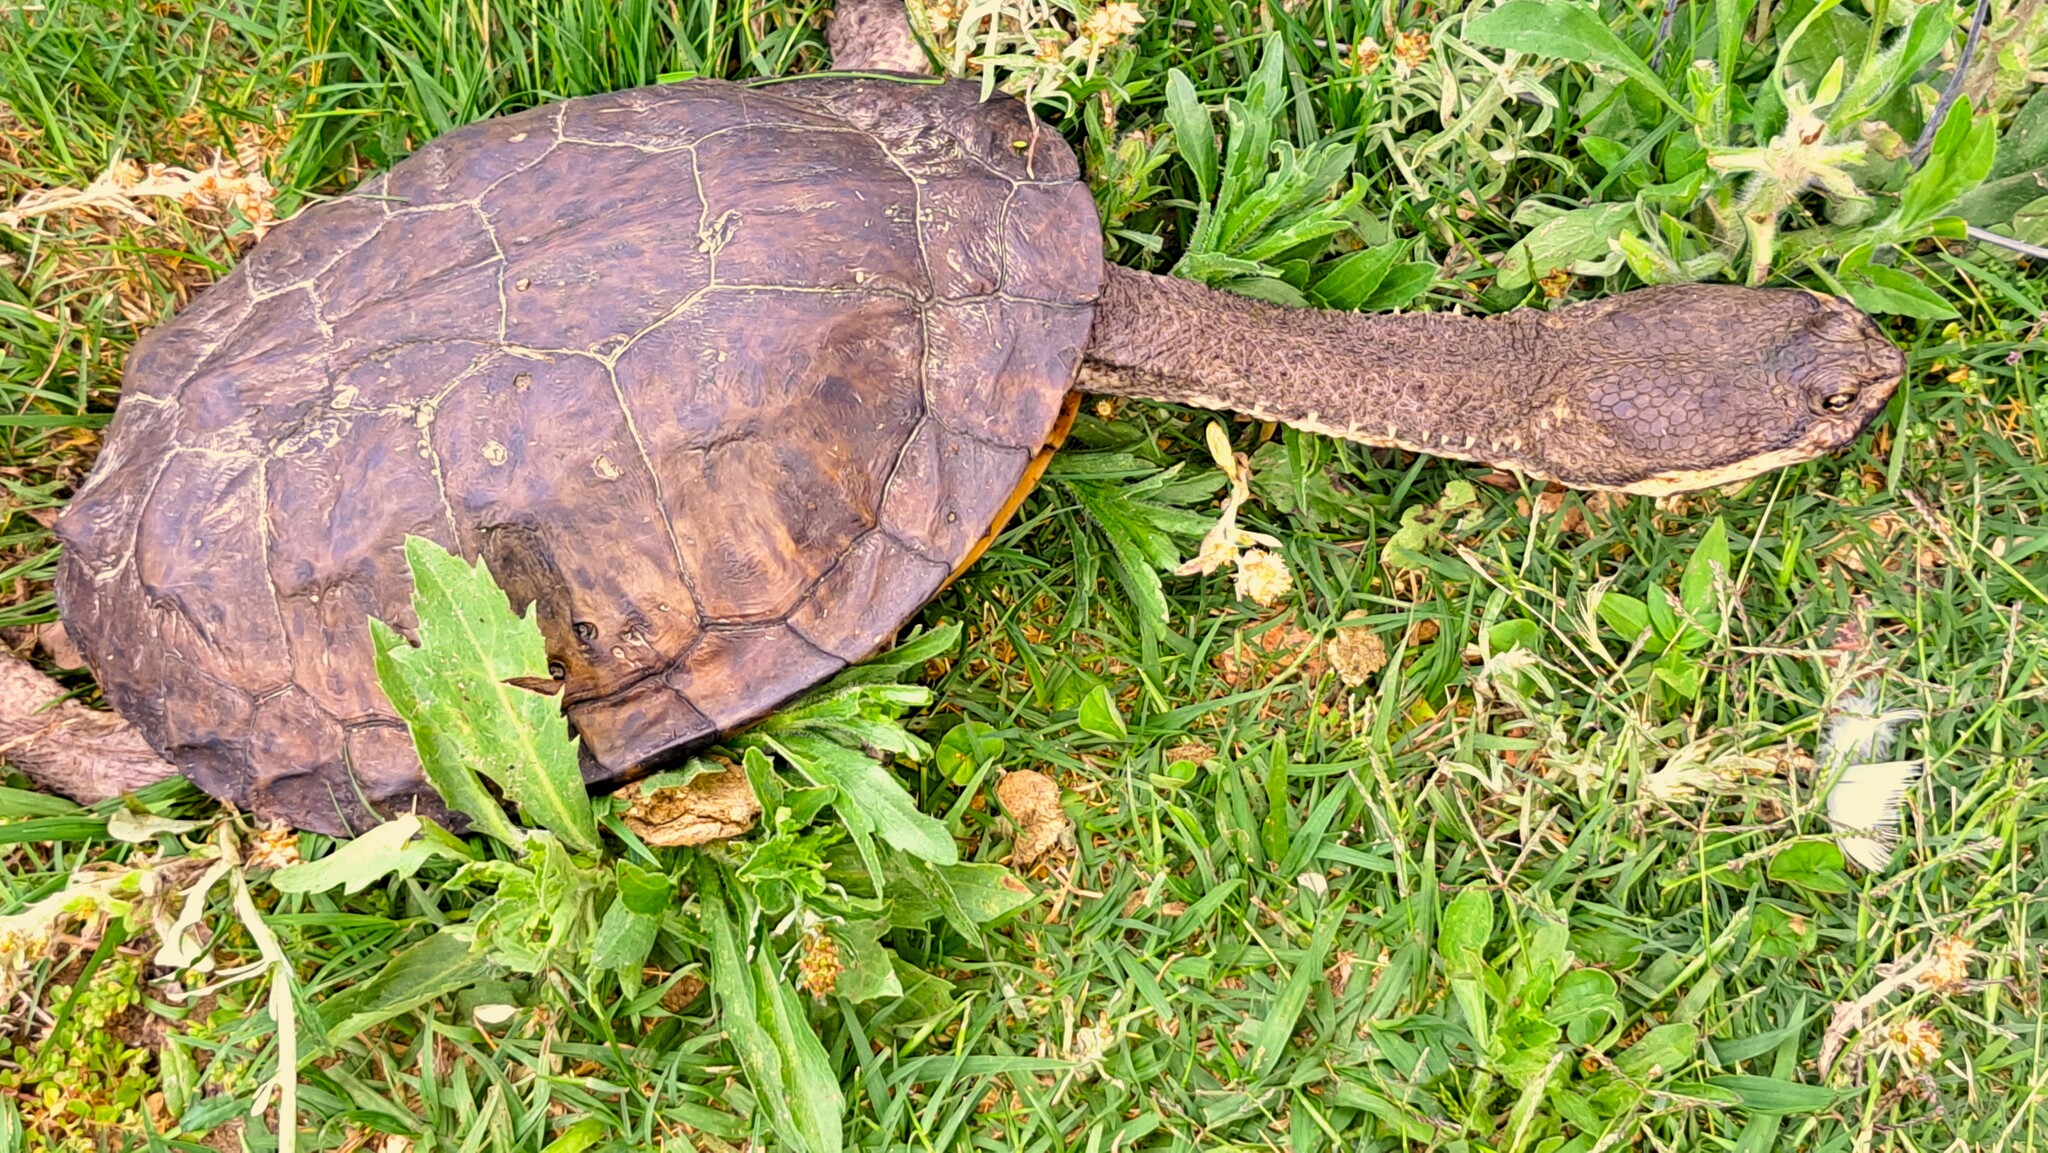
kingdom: Animalia
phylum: Chordata
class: Testudines
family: Chelidae
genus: Hydromedusa
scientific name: Hydromedusa tectifera
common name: Argentine snake-necked turtle
